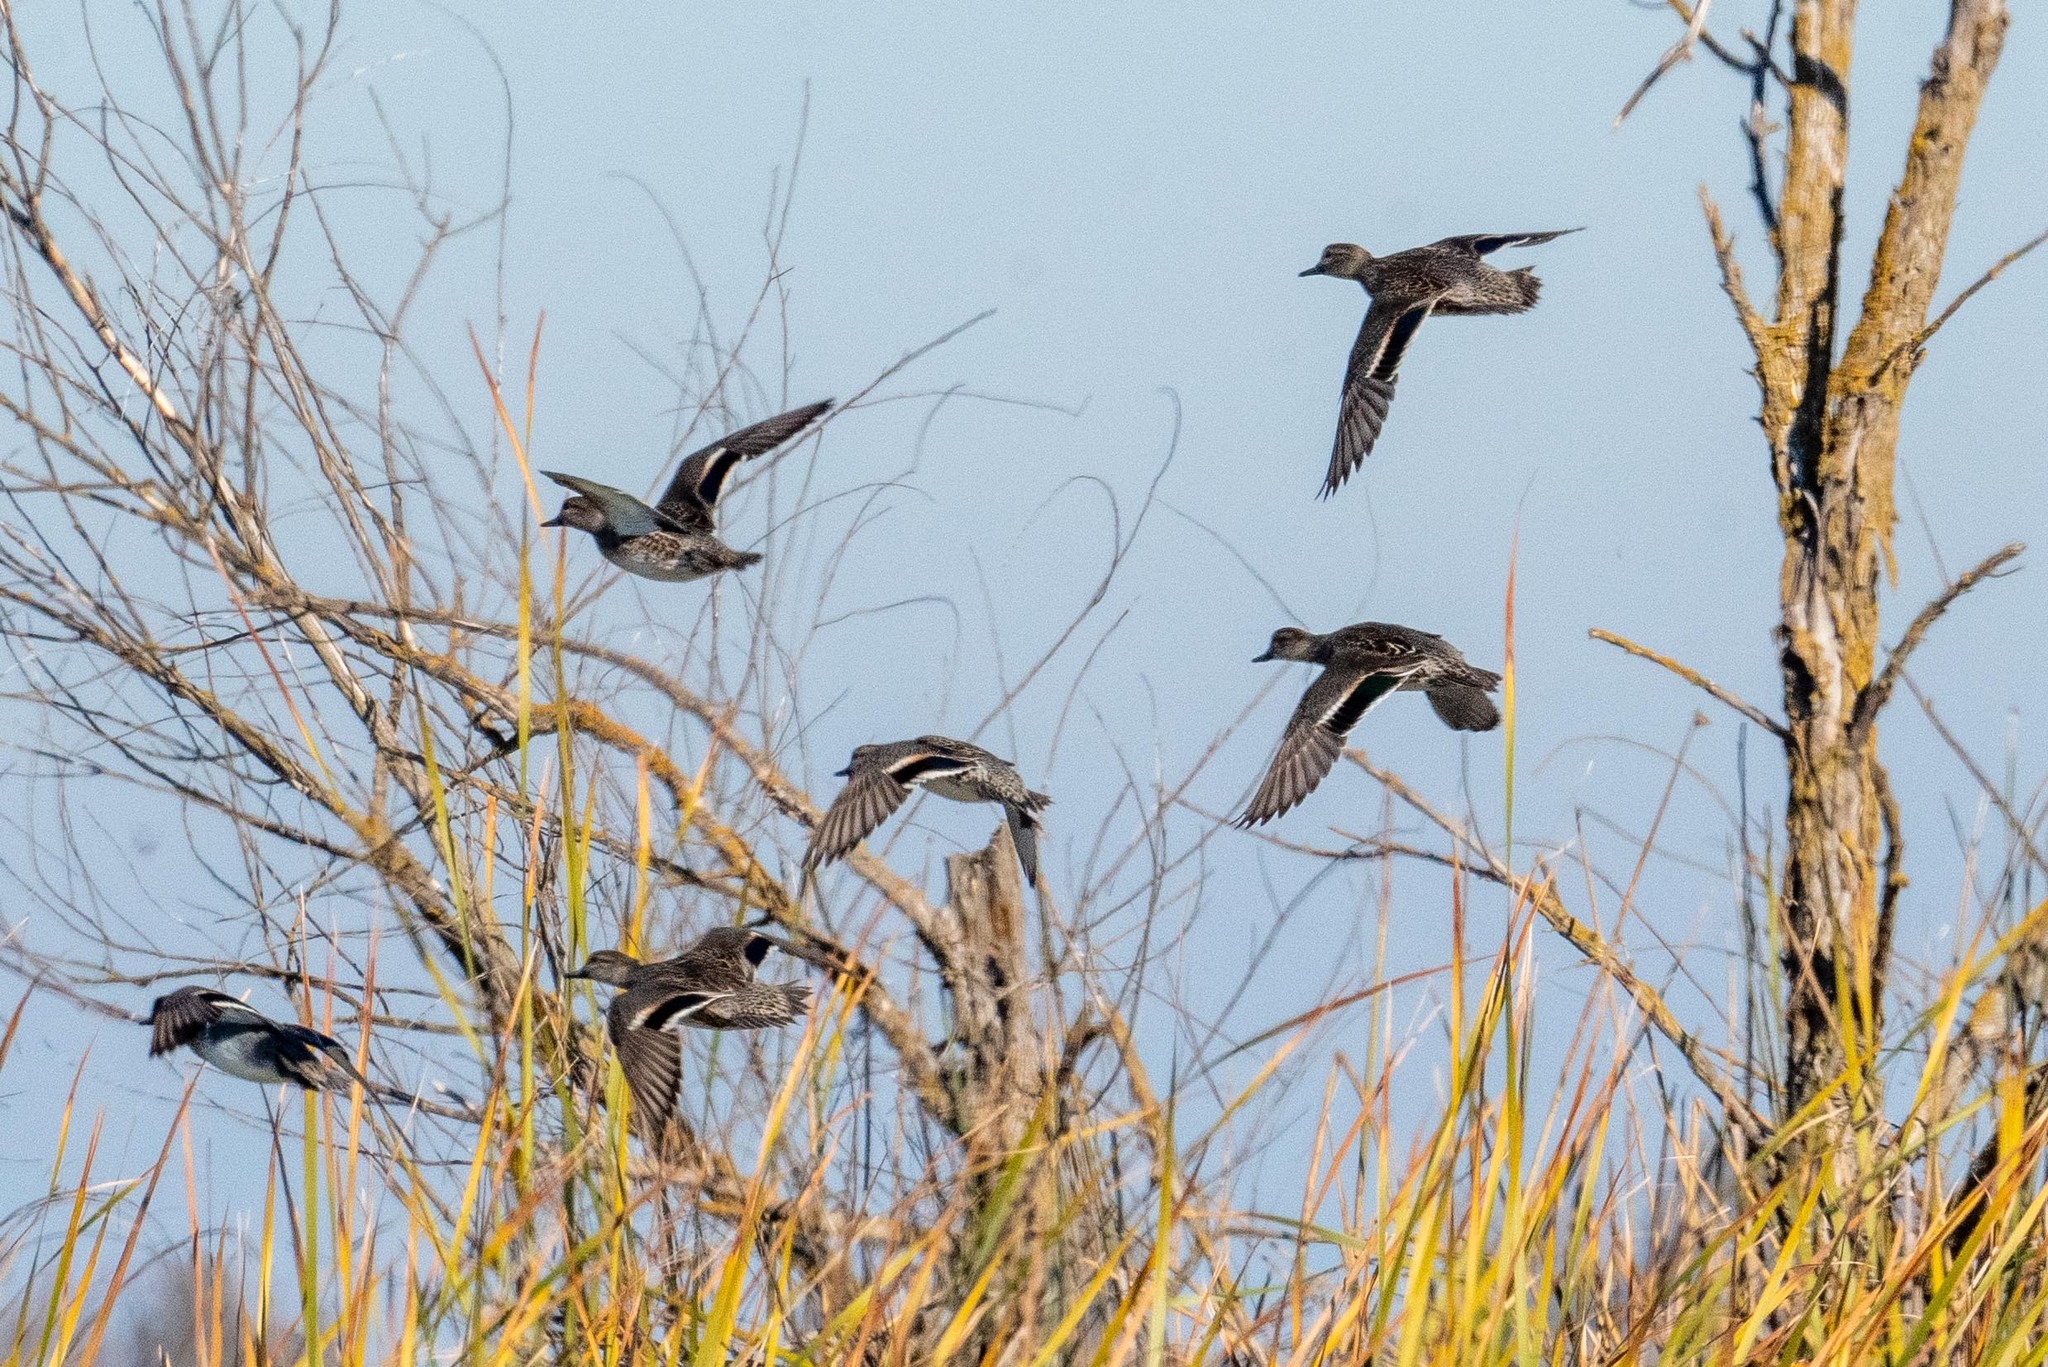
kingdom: Animalia
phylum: Chordata
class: Aves
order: Anseriformes
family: Anatidae
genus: Anas
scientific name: Anas crecca
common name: Eurasian teal
